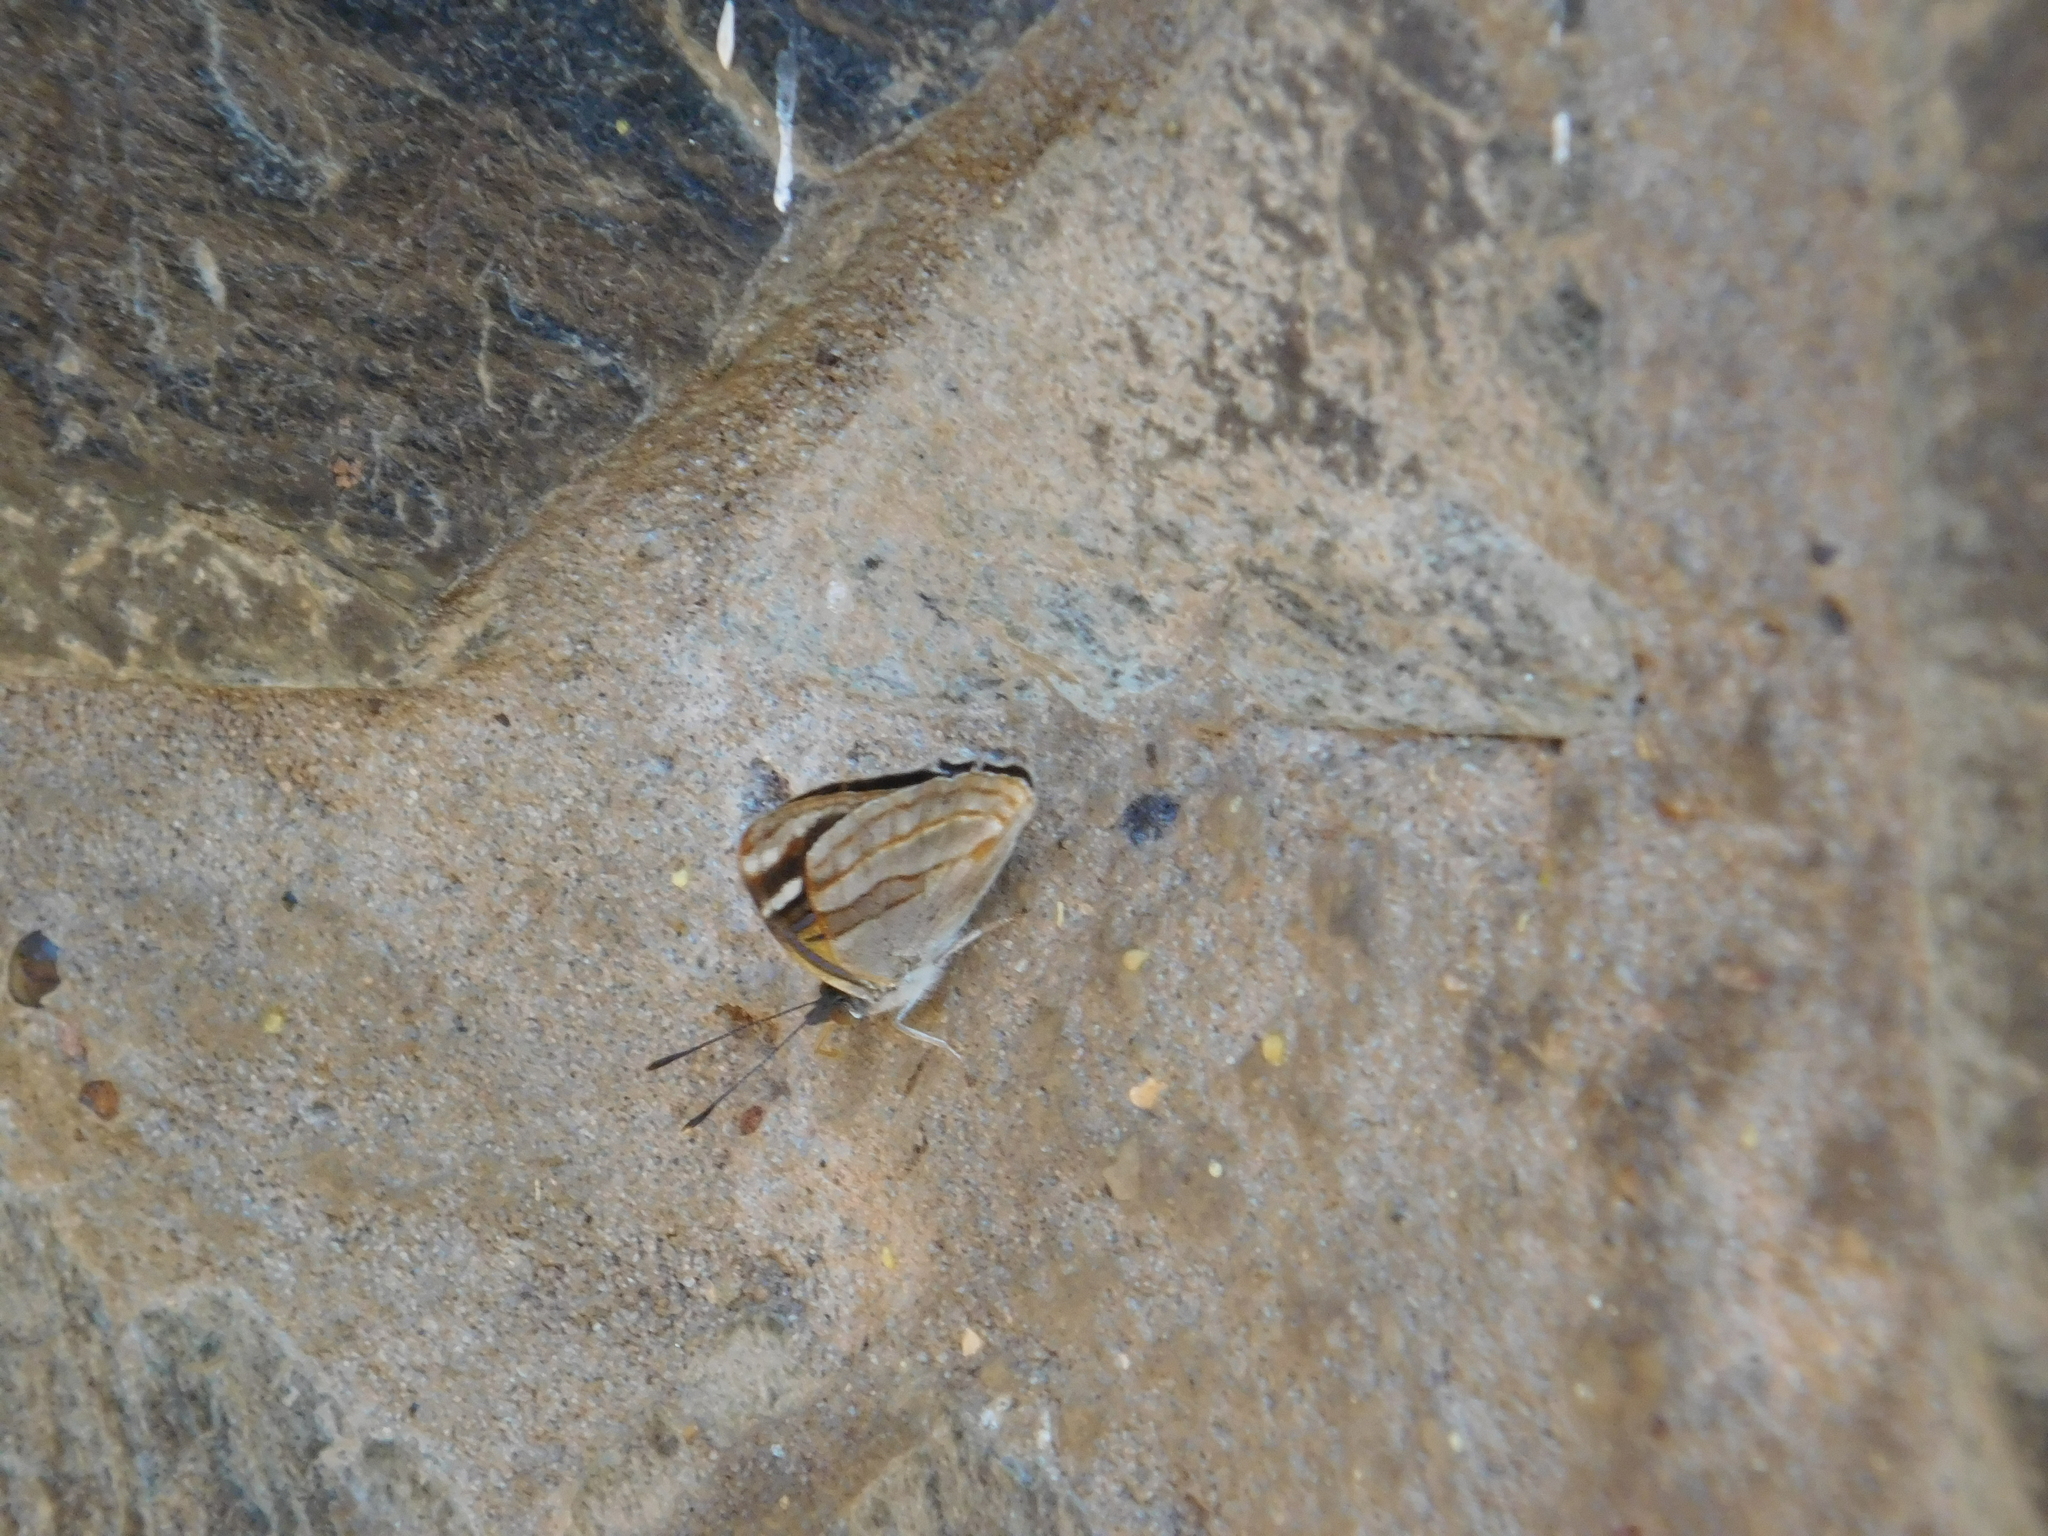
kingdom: Animalia
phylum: Arthropoda
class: Insecta
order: Lepidoptera
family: Nymphalidae
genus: Dynamine
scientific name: Dynamine tithia
